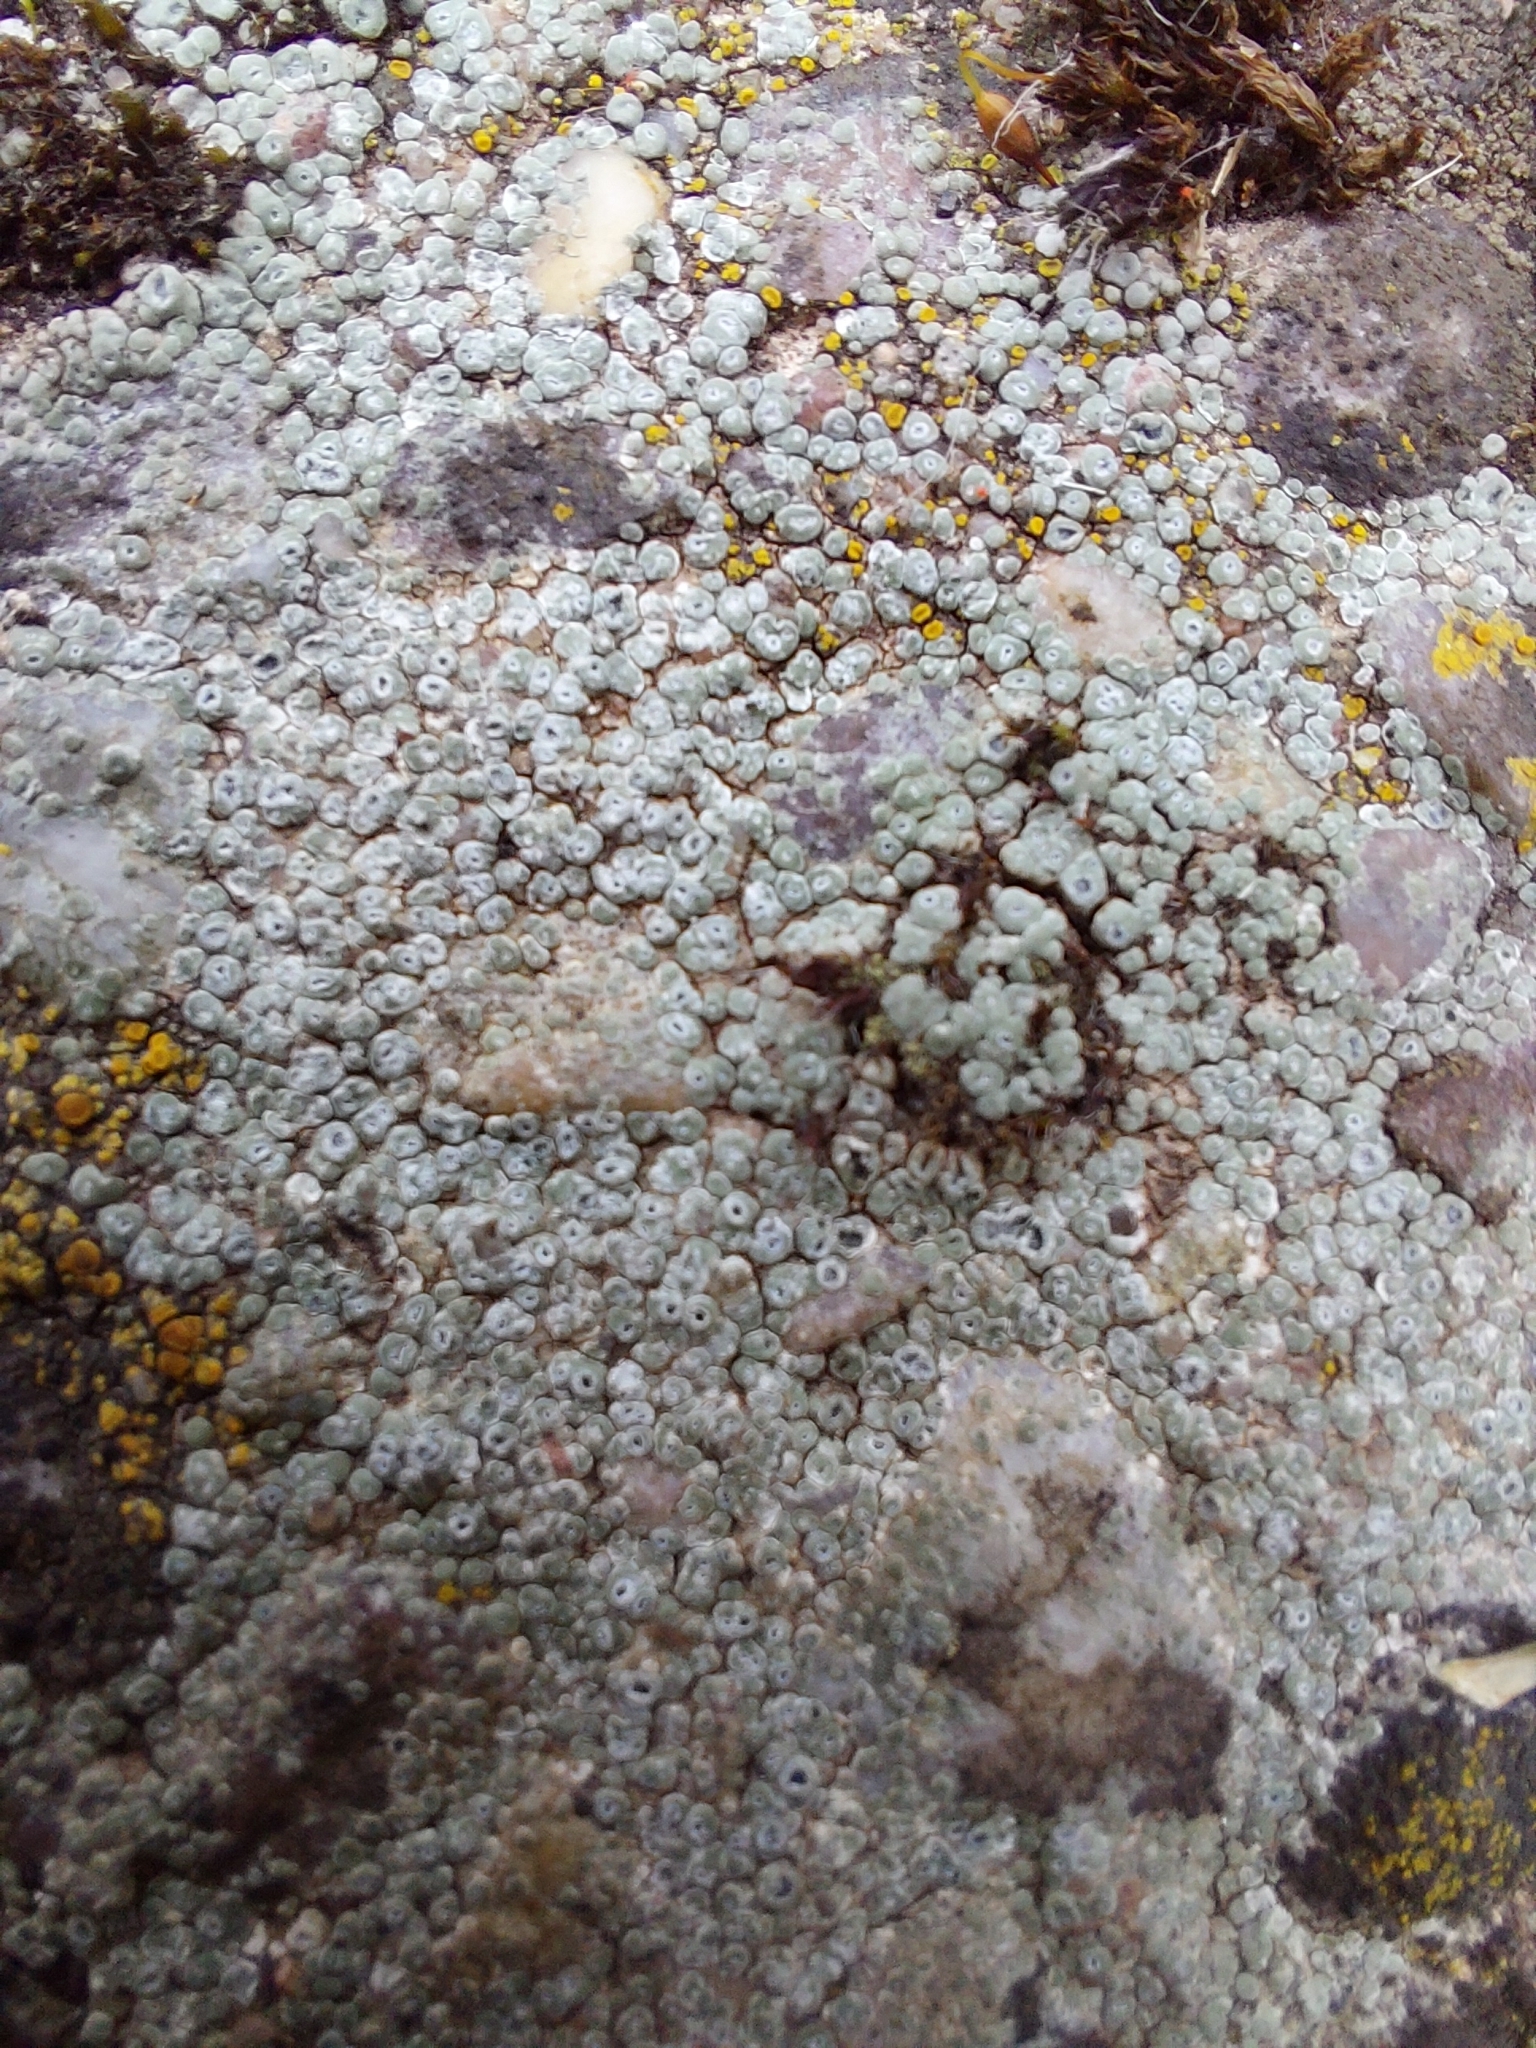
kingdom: Fungi
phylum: Ascomycota
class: Lecanoromycetes
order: Pertusariales
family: Megasporaceae
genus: Circinaria
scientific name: Circinaria contorta
